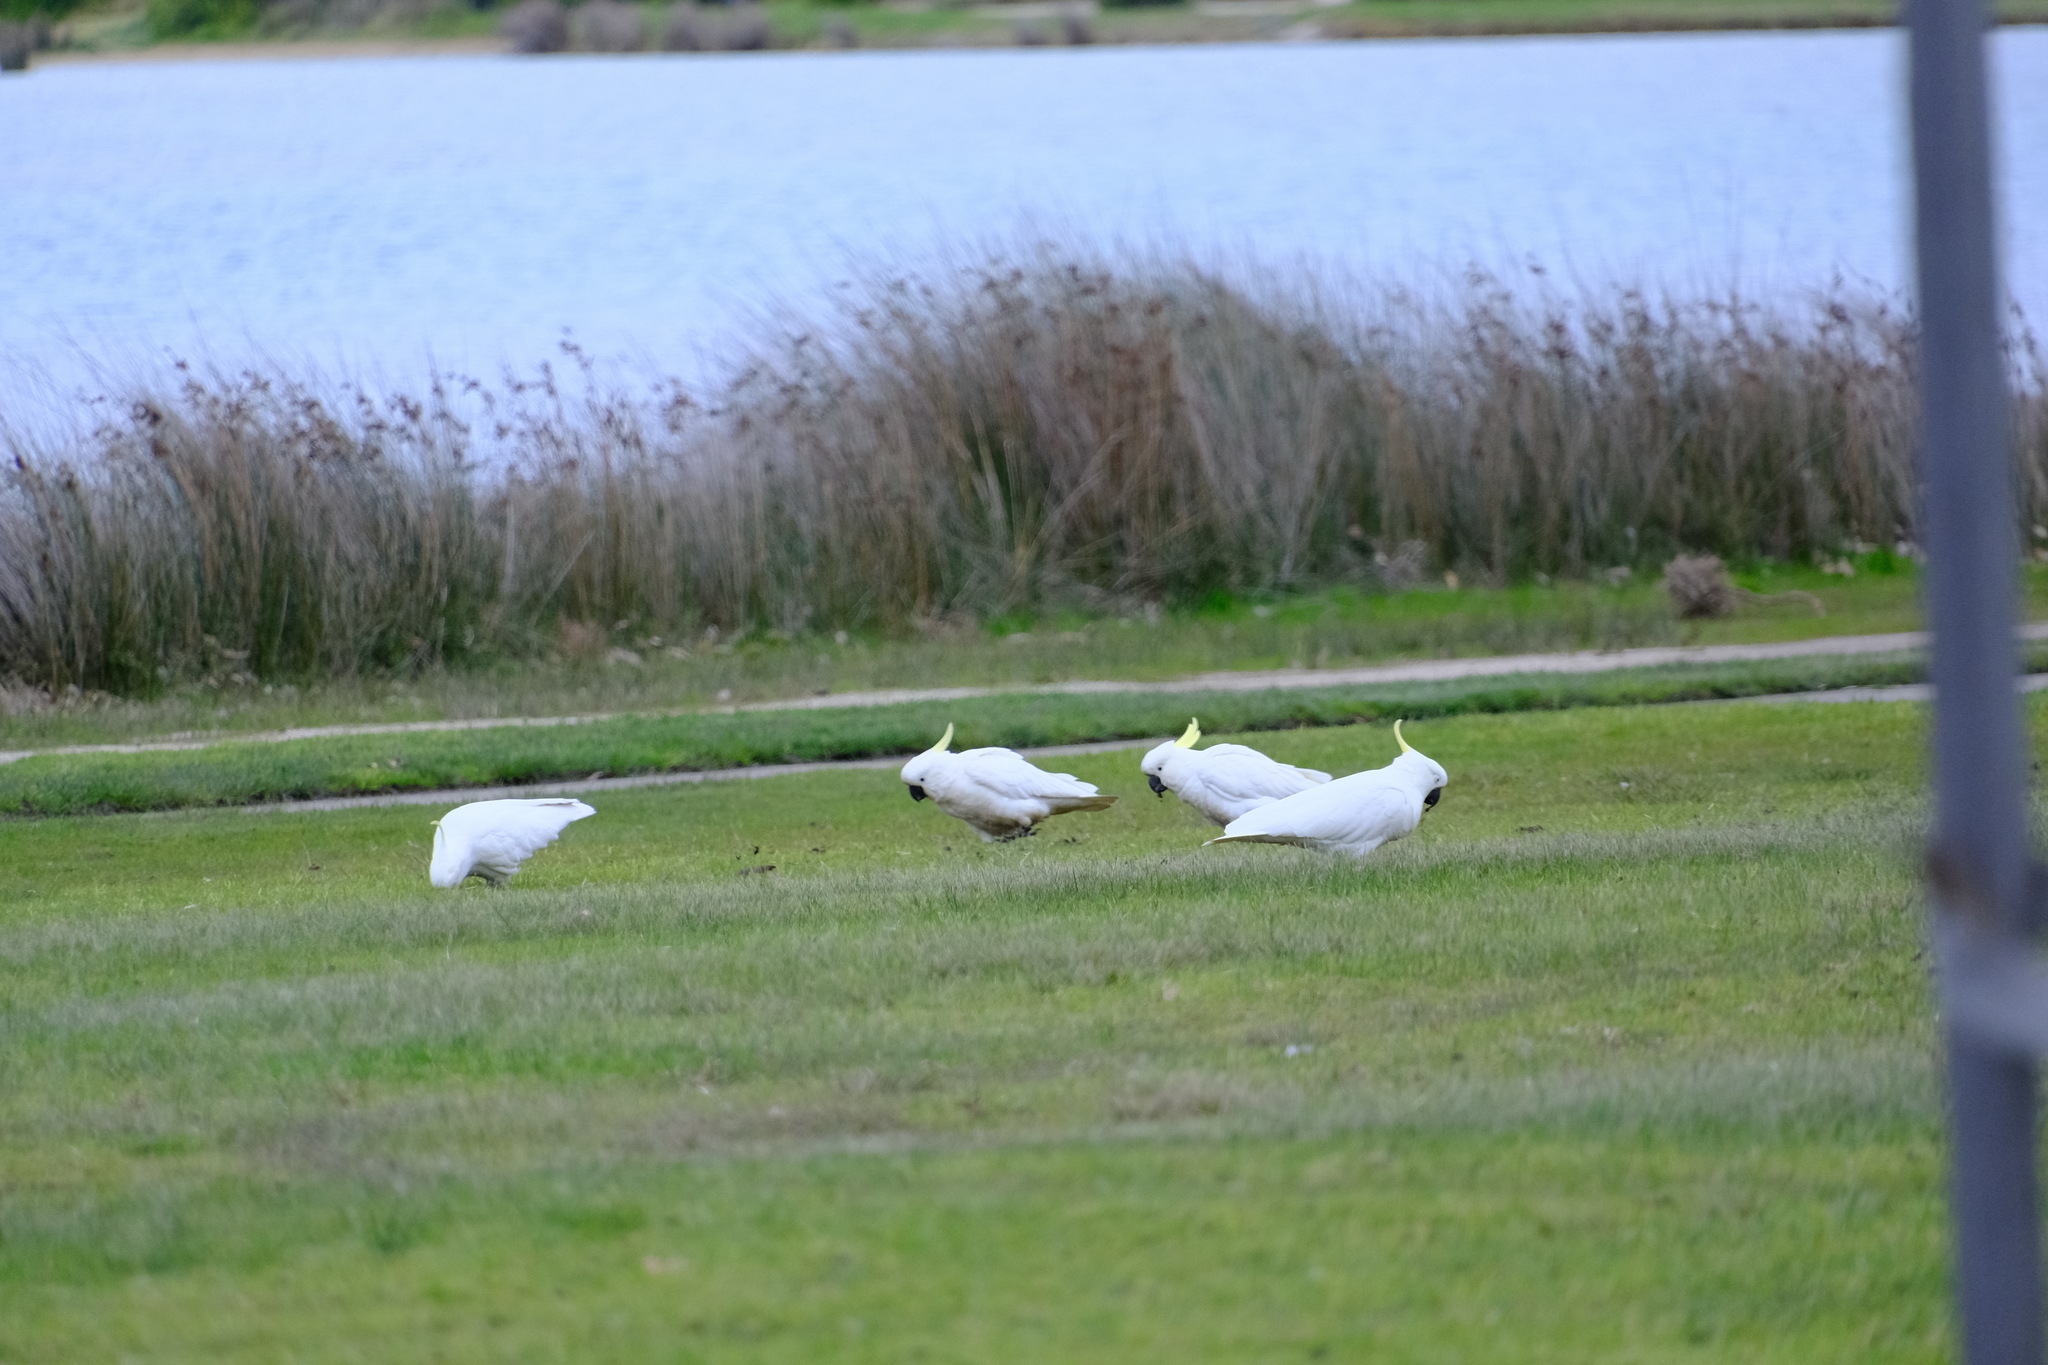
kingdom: Animalia
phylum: Chordata
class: Aves
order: Psittaciformes
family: Psittacidae
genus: Cacatua
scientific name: Cacatua galerita
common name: Sulphur-crested cockatoo
